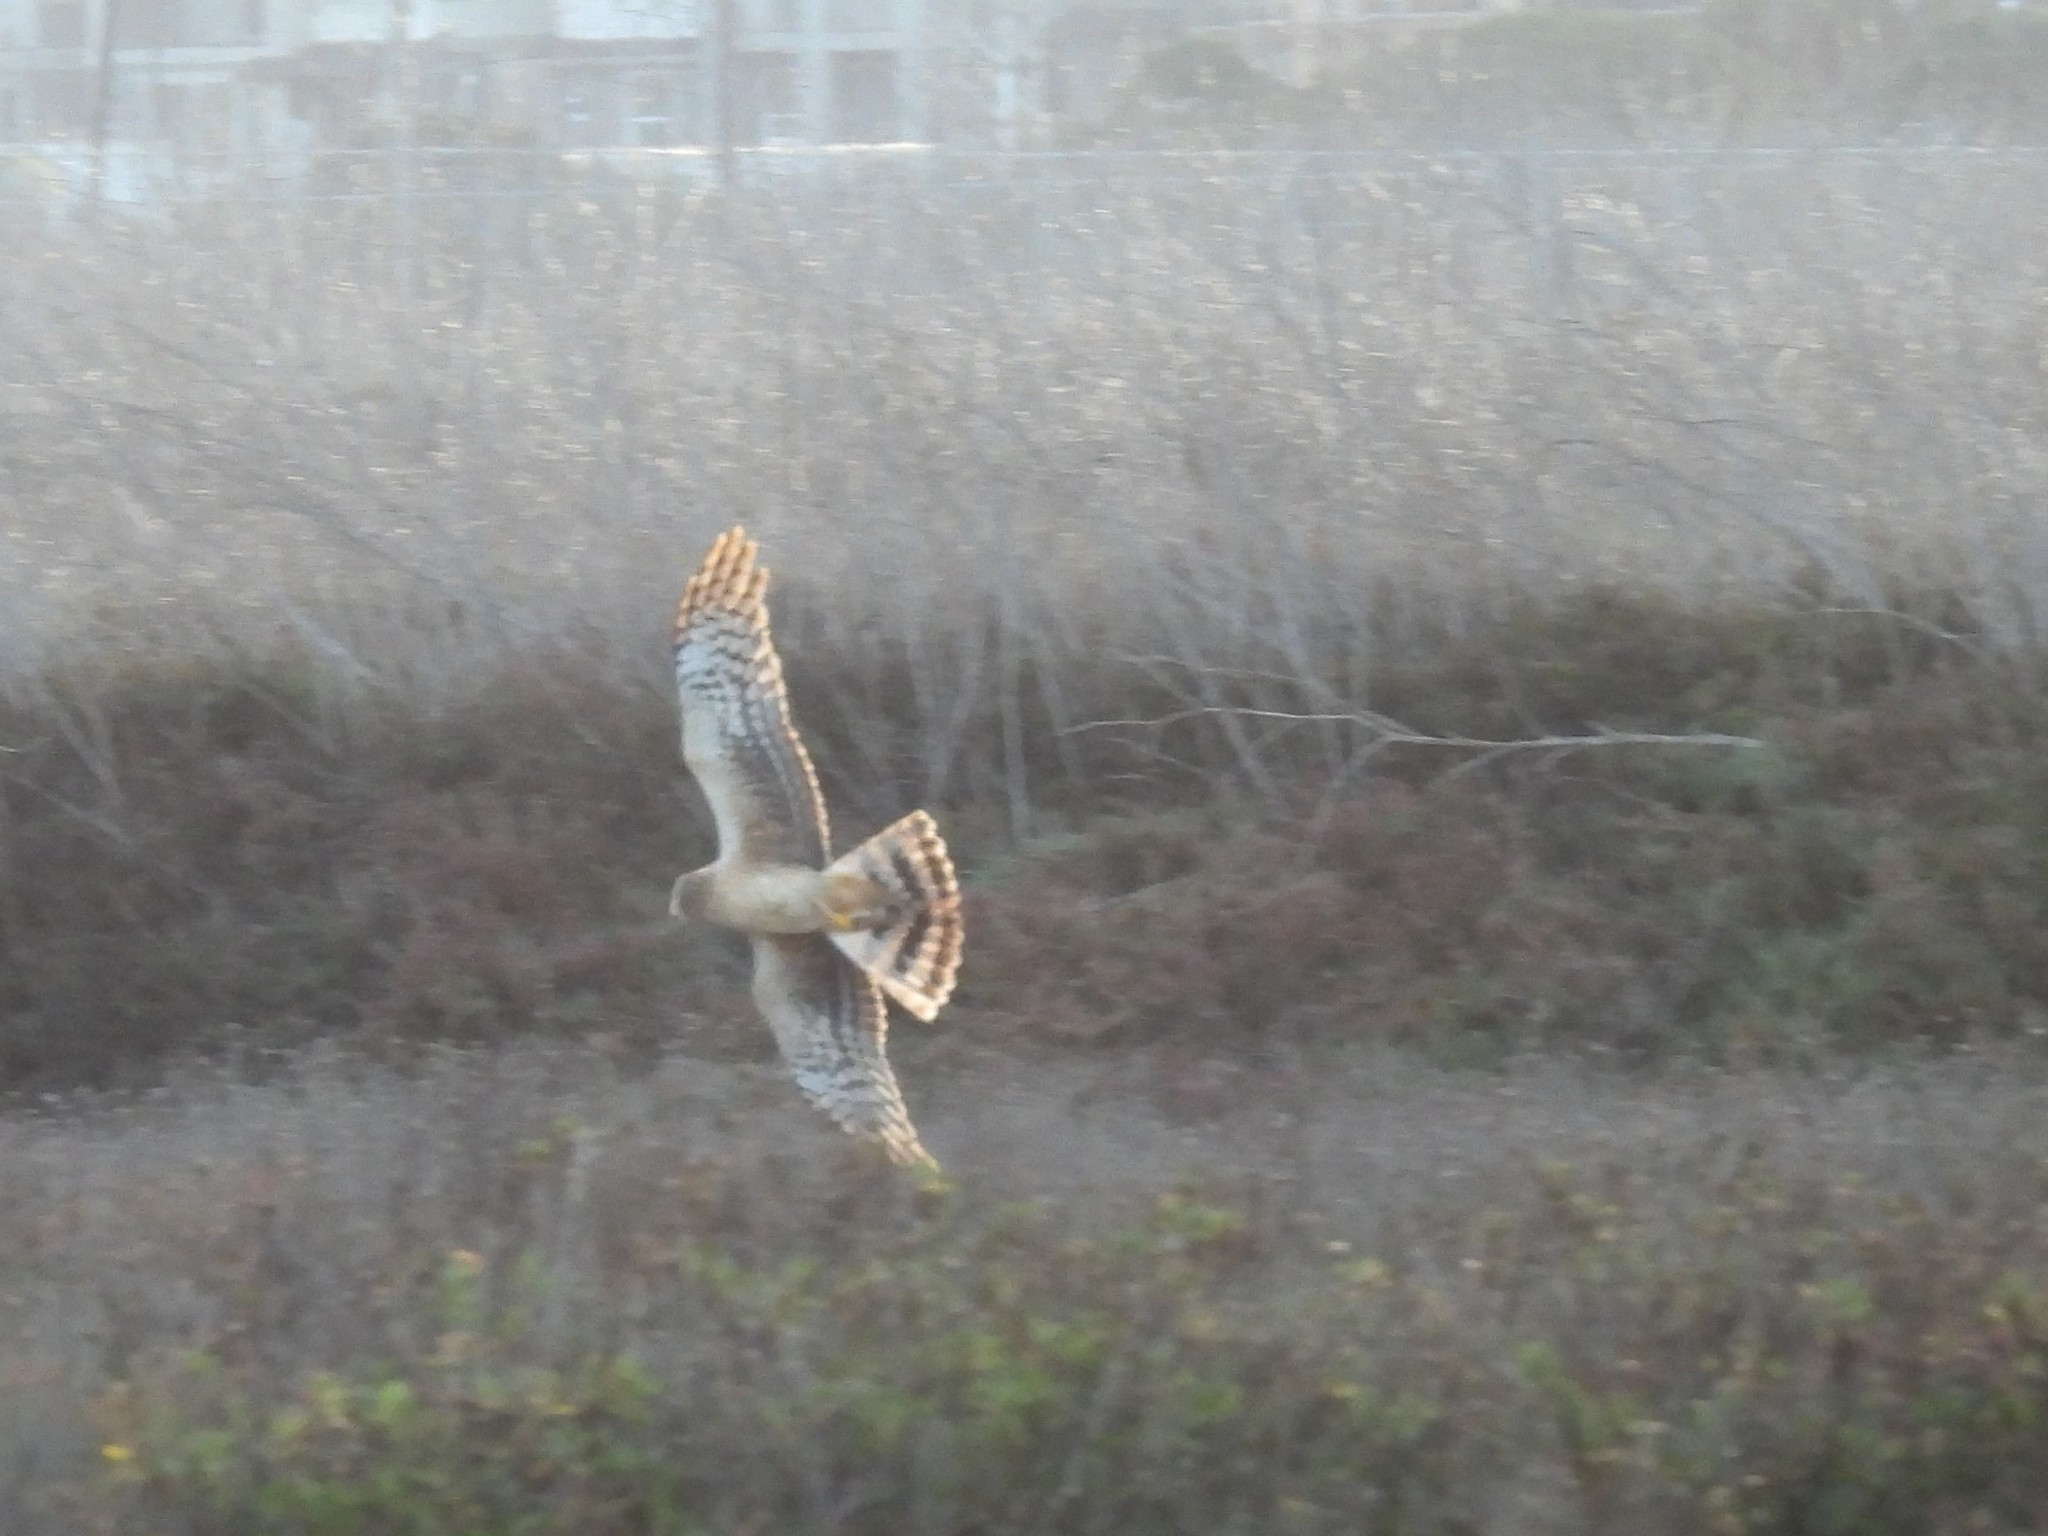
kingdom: Animalia
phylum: Chordata
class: Aves
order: Accipitriformes
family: Accipitridae
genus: Circus
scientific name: Circus cyaneus
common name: Hen harrier
